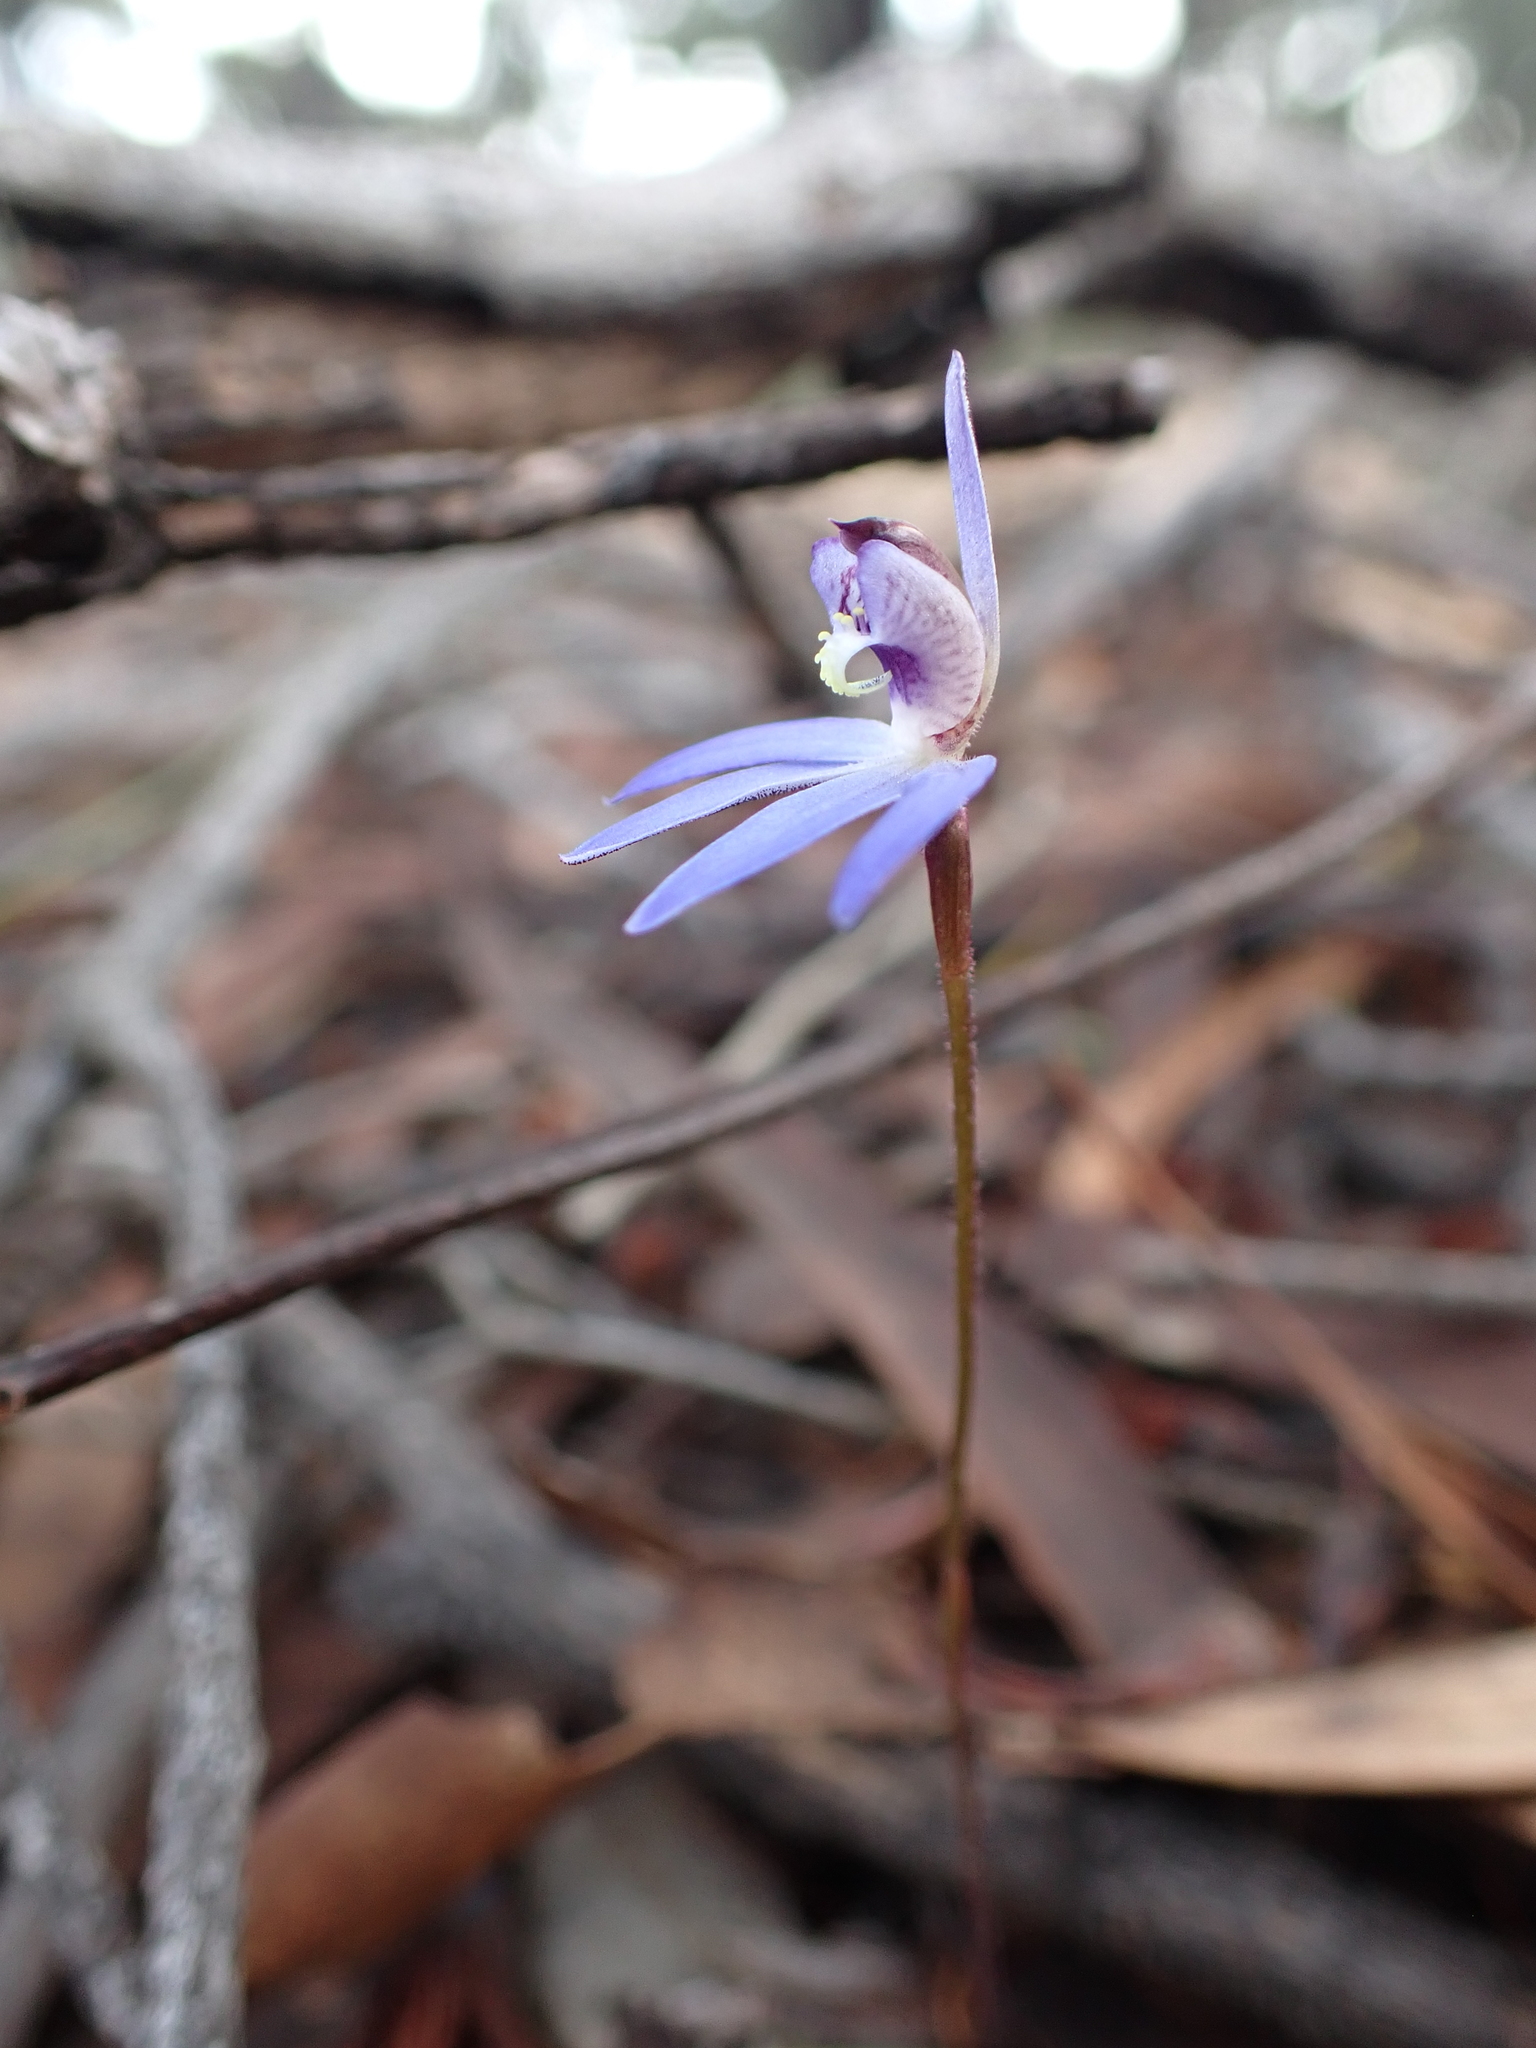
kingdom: Plantae
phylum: Tracheophyta
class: Liliopsida
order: Asparagales
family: Orchidaceae
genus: Caladenia
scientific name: Caladenia caerulea
